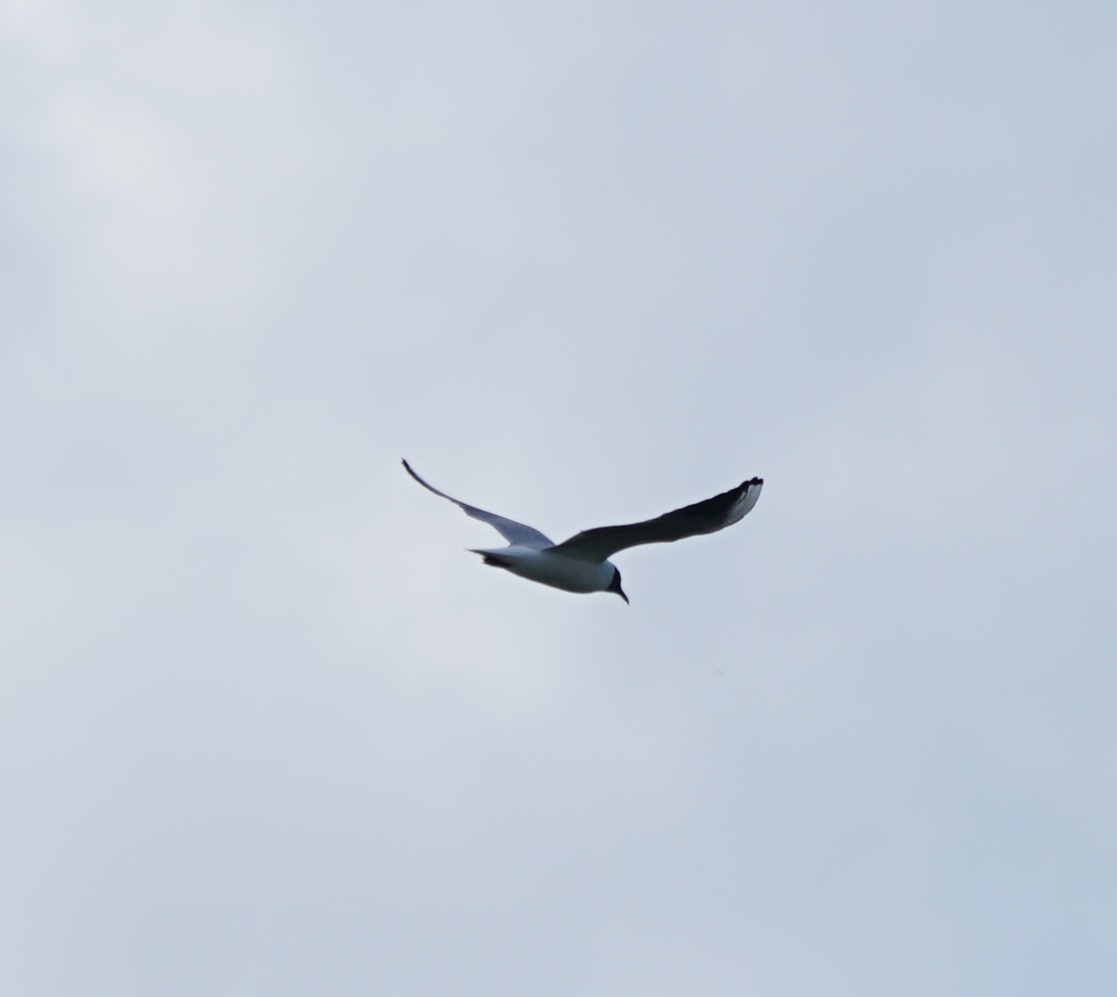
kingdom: Animalia
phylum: Chordata
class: Aves
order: Charadriiformes
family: Laridae
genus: Chroicocephalus
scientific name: Chroicocephalus ridibundus
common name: Black-headed gull
